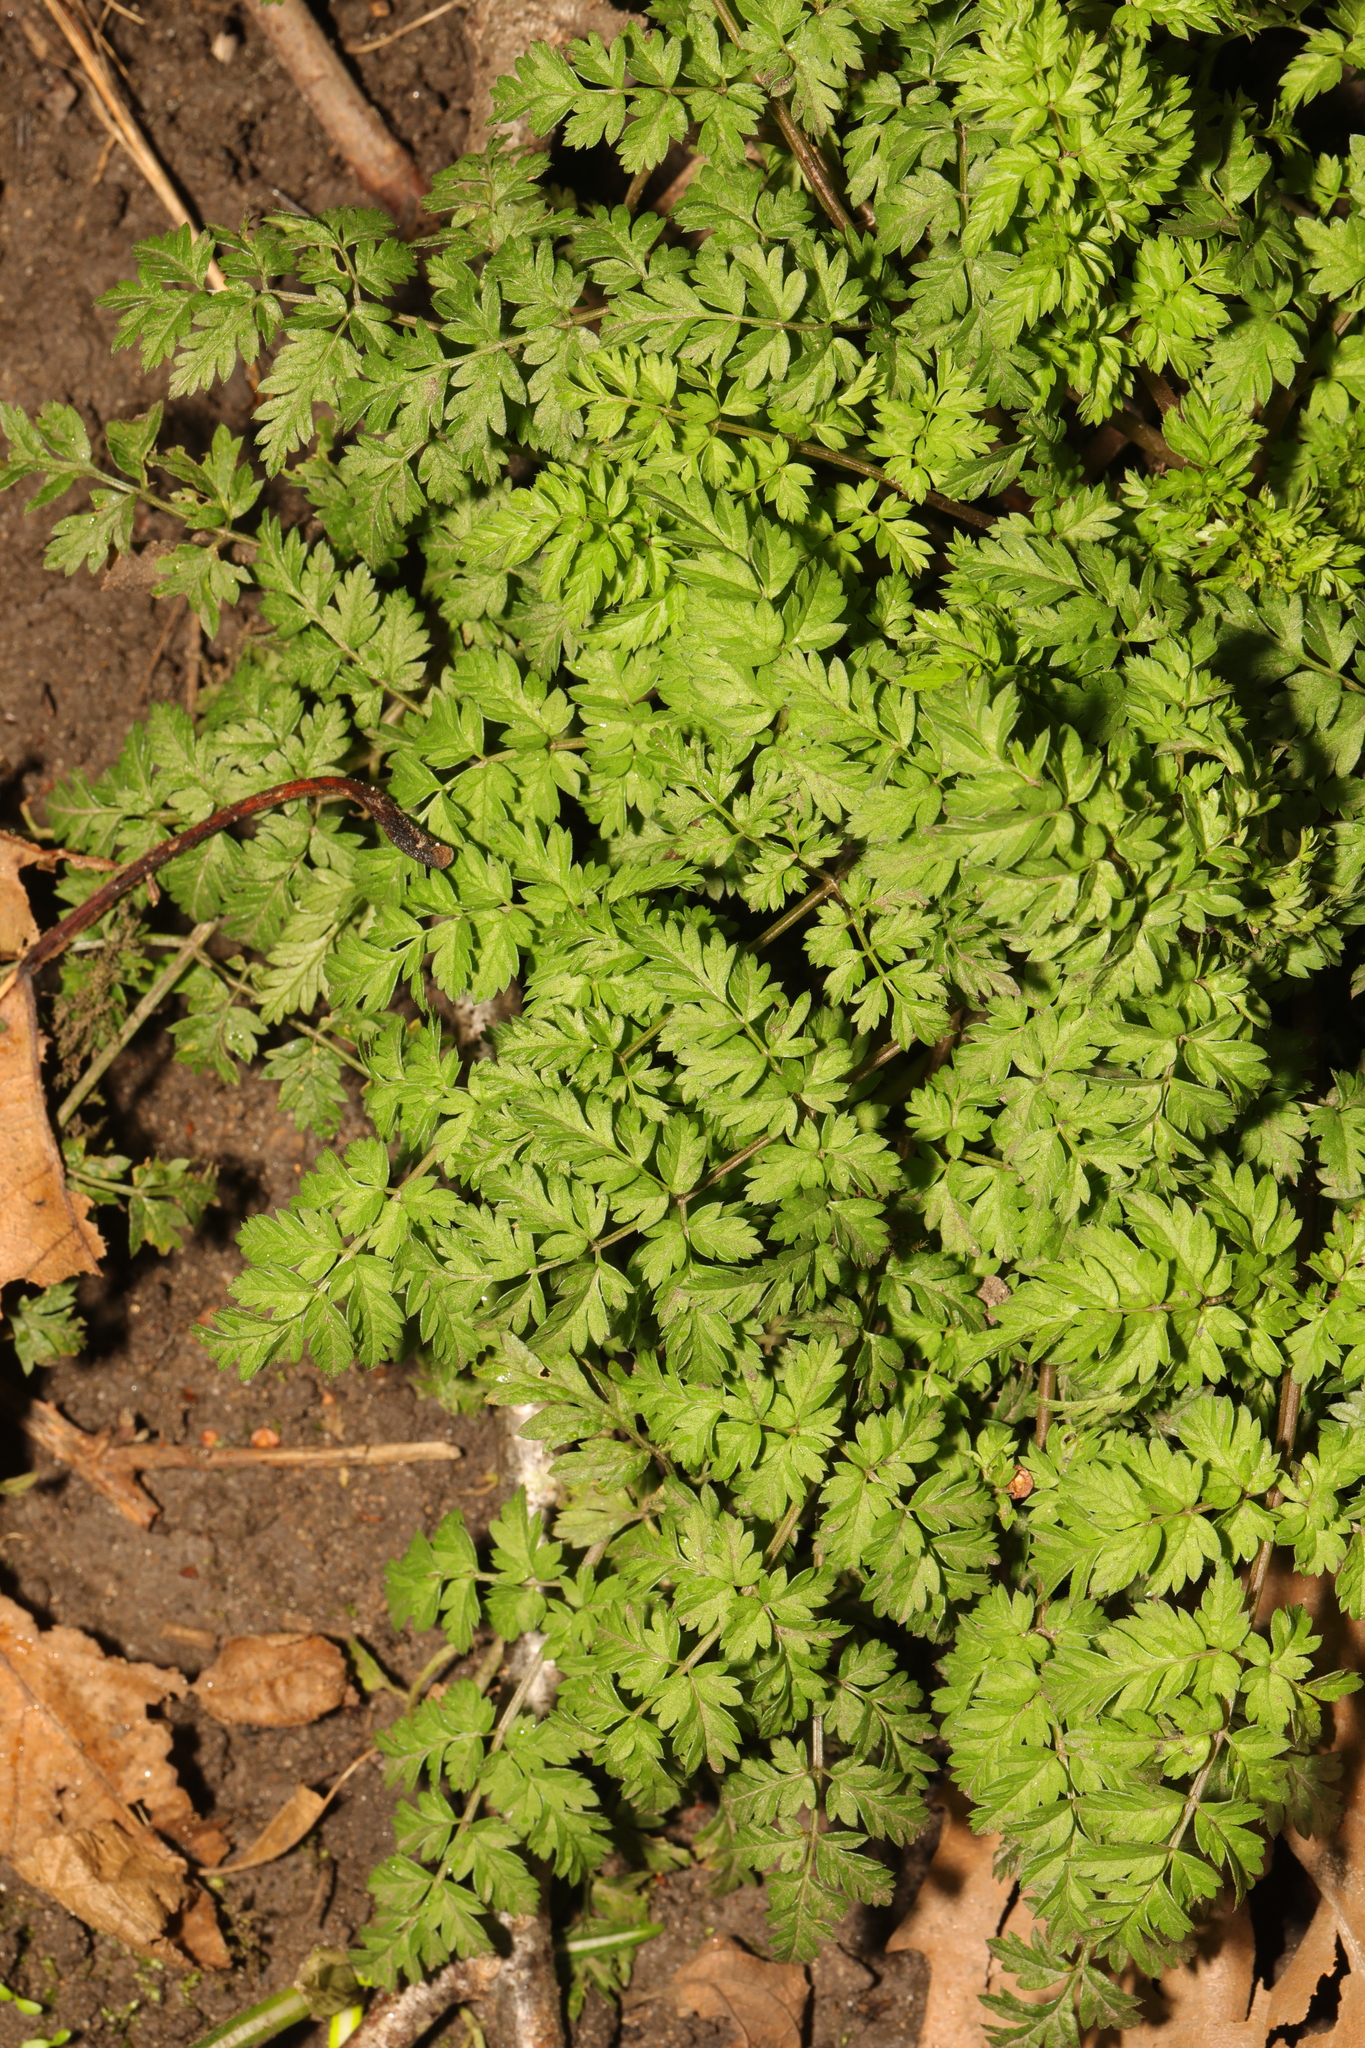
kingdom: Plantae
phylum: Tracheophyta
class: Magnoliopsida
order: Apiales
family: Apiaceae
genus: Anthriscus
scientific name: Anthriscus sylvestris
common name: Cow parsley
